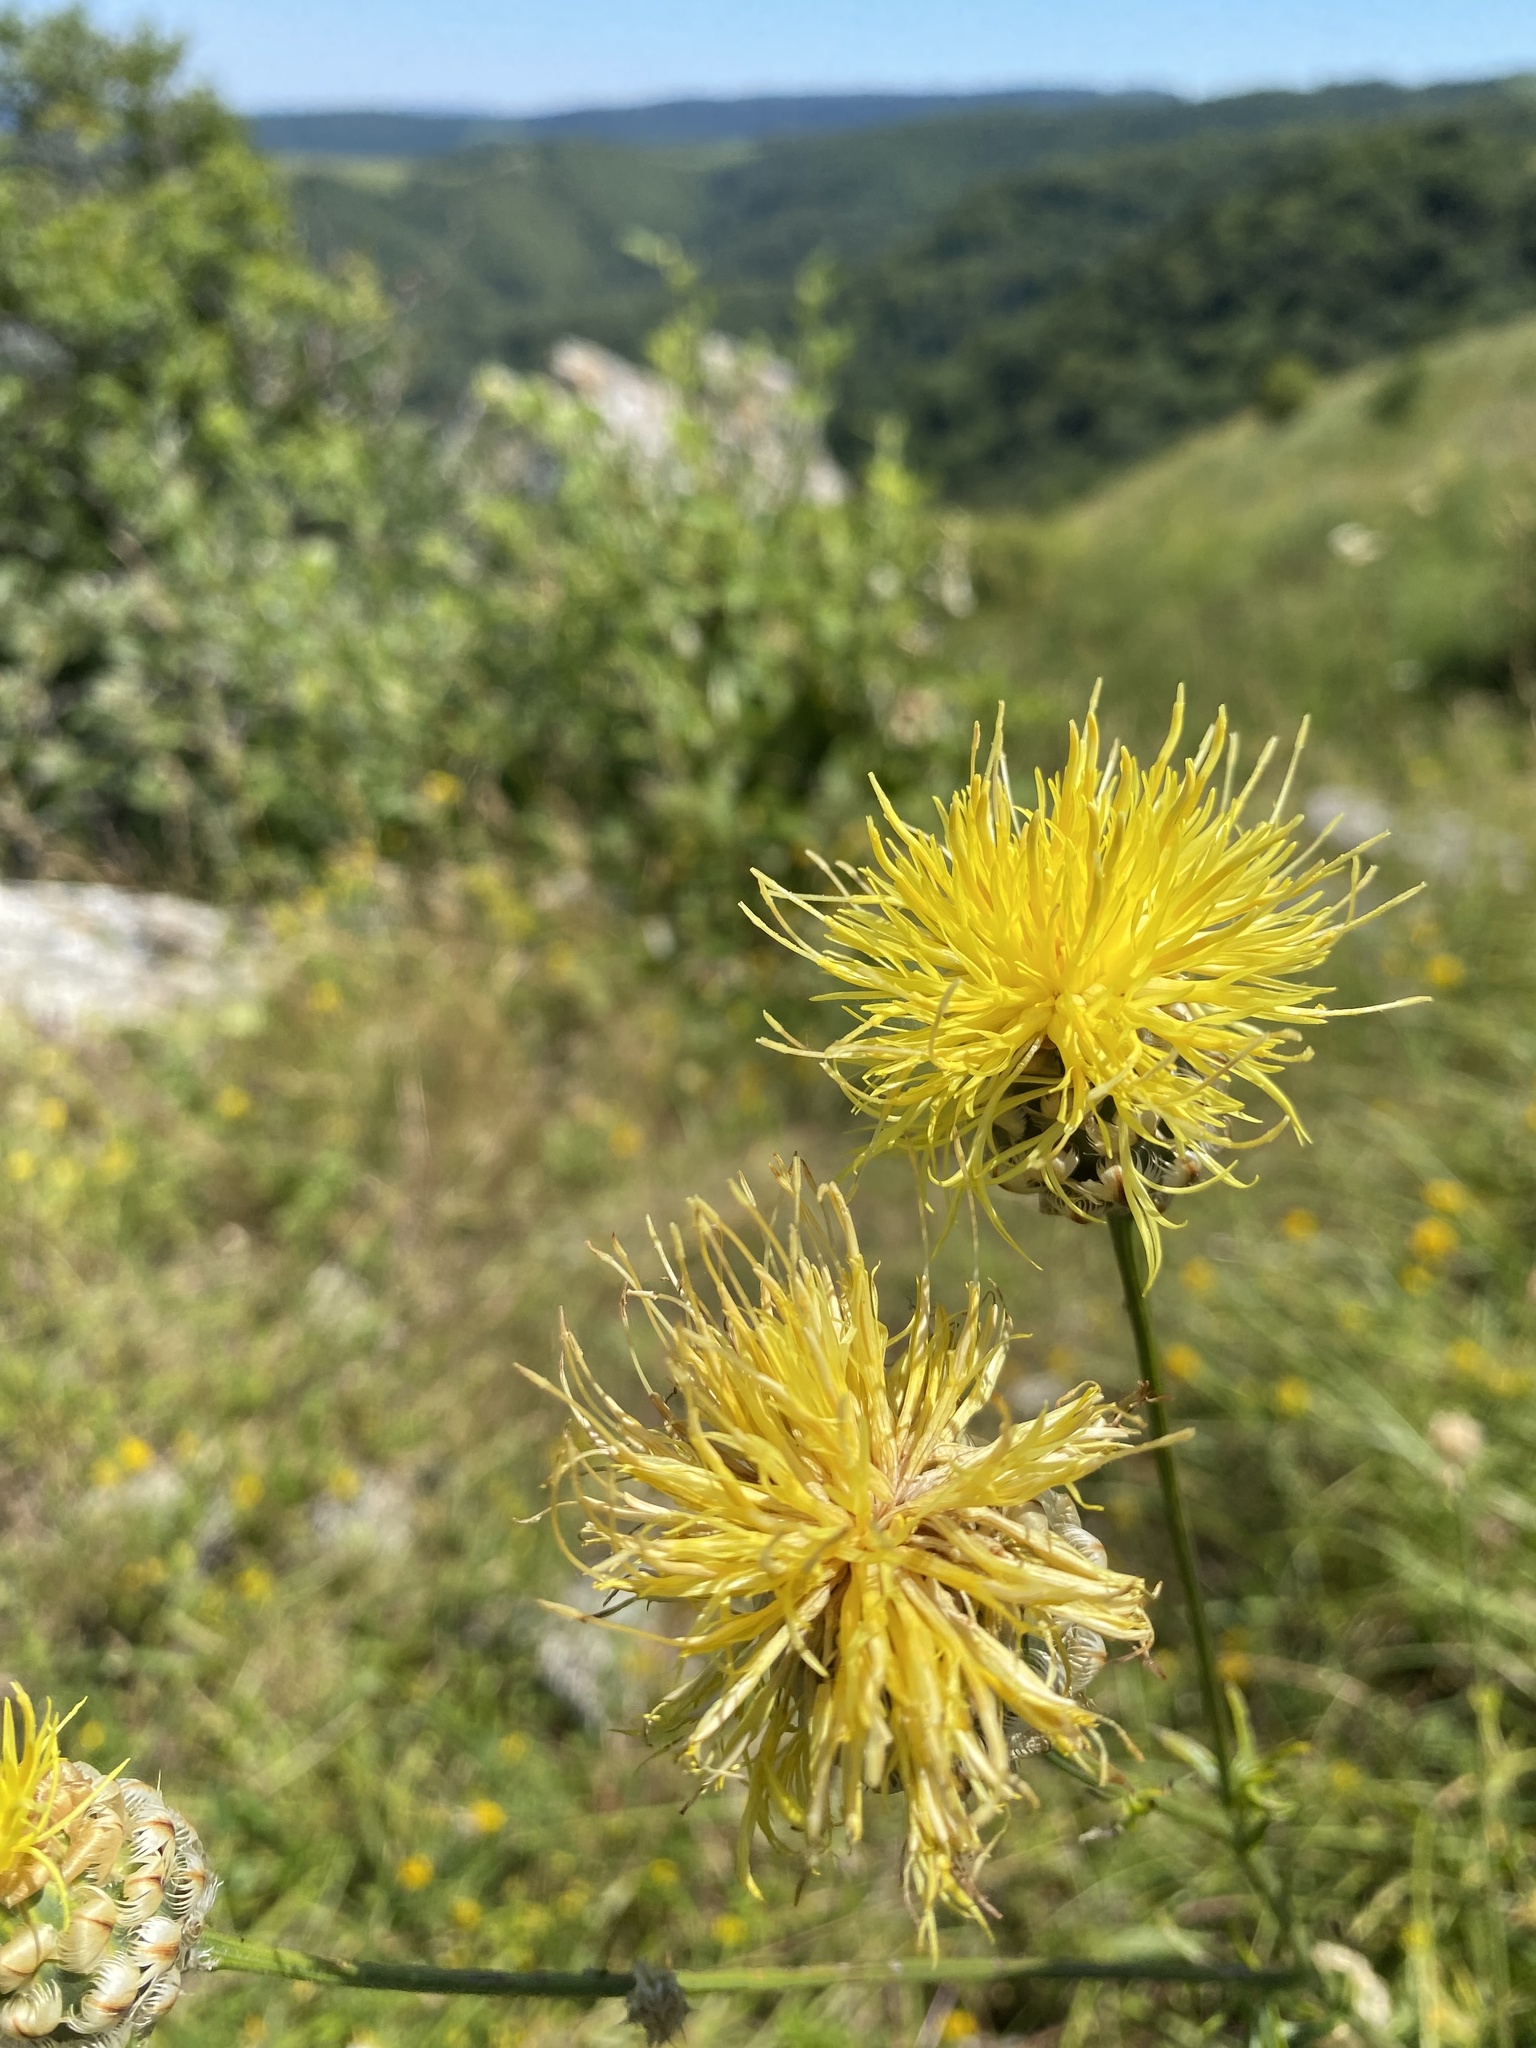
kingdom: Plantae
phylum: Tracheophyta
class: Magnoliopsida
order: Asterales
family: Asteraceae
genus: Centaurea
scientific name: Centaurea orientalis
